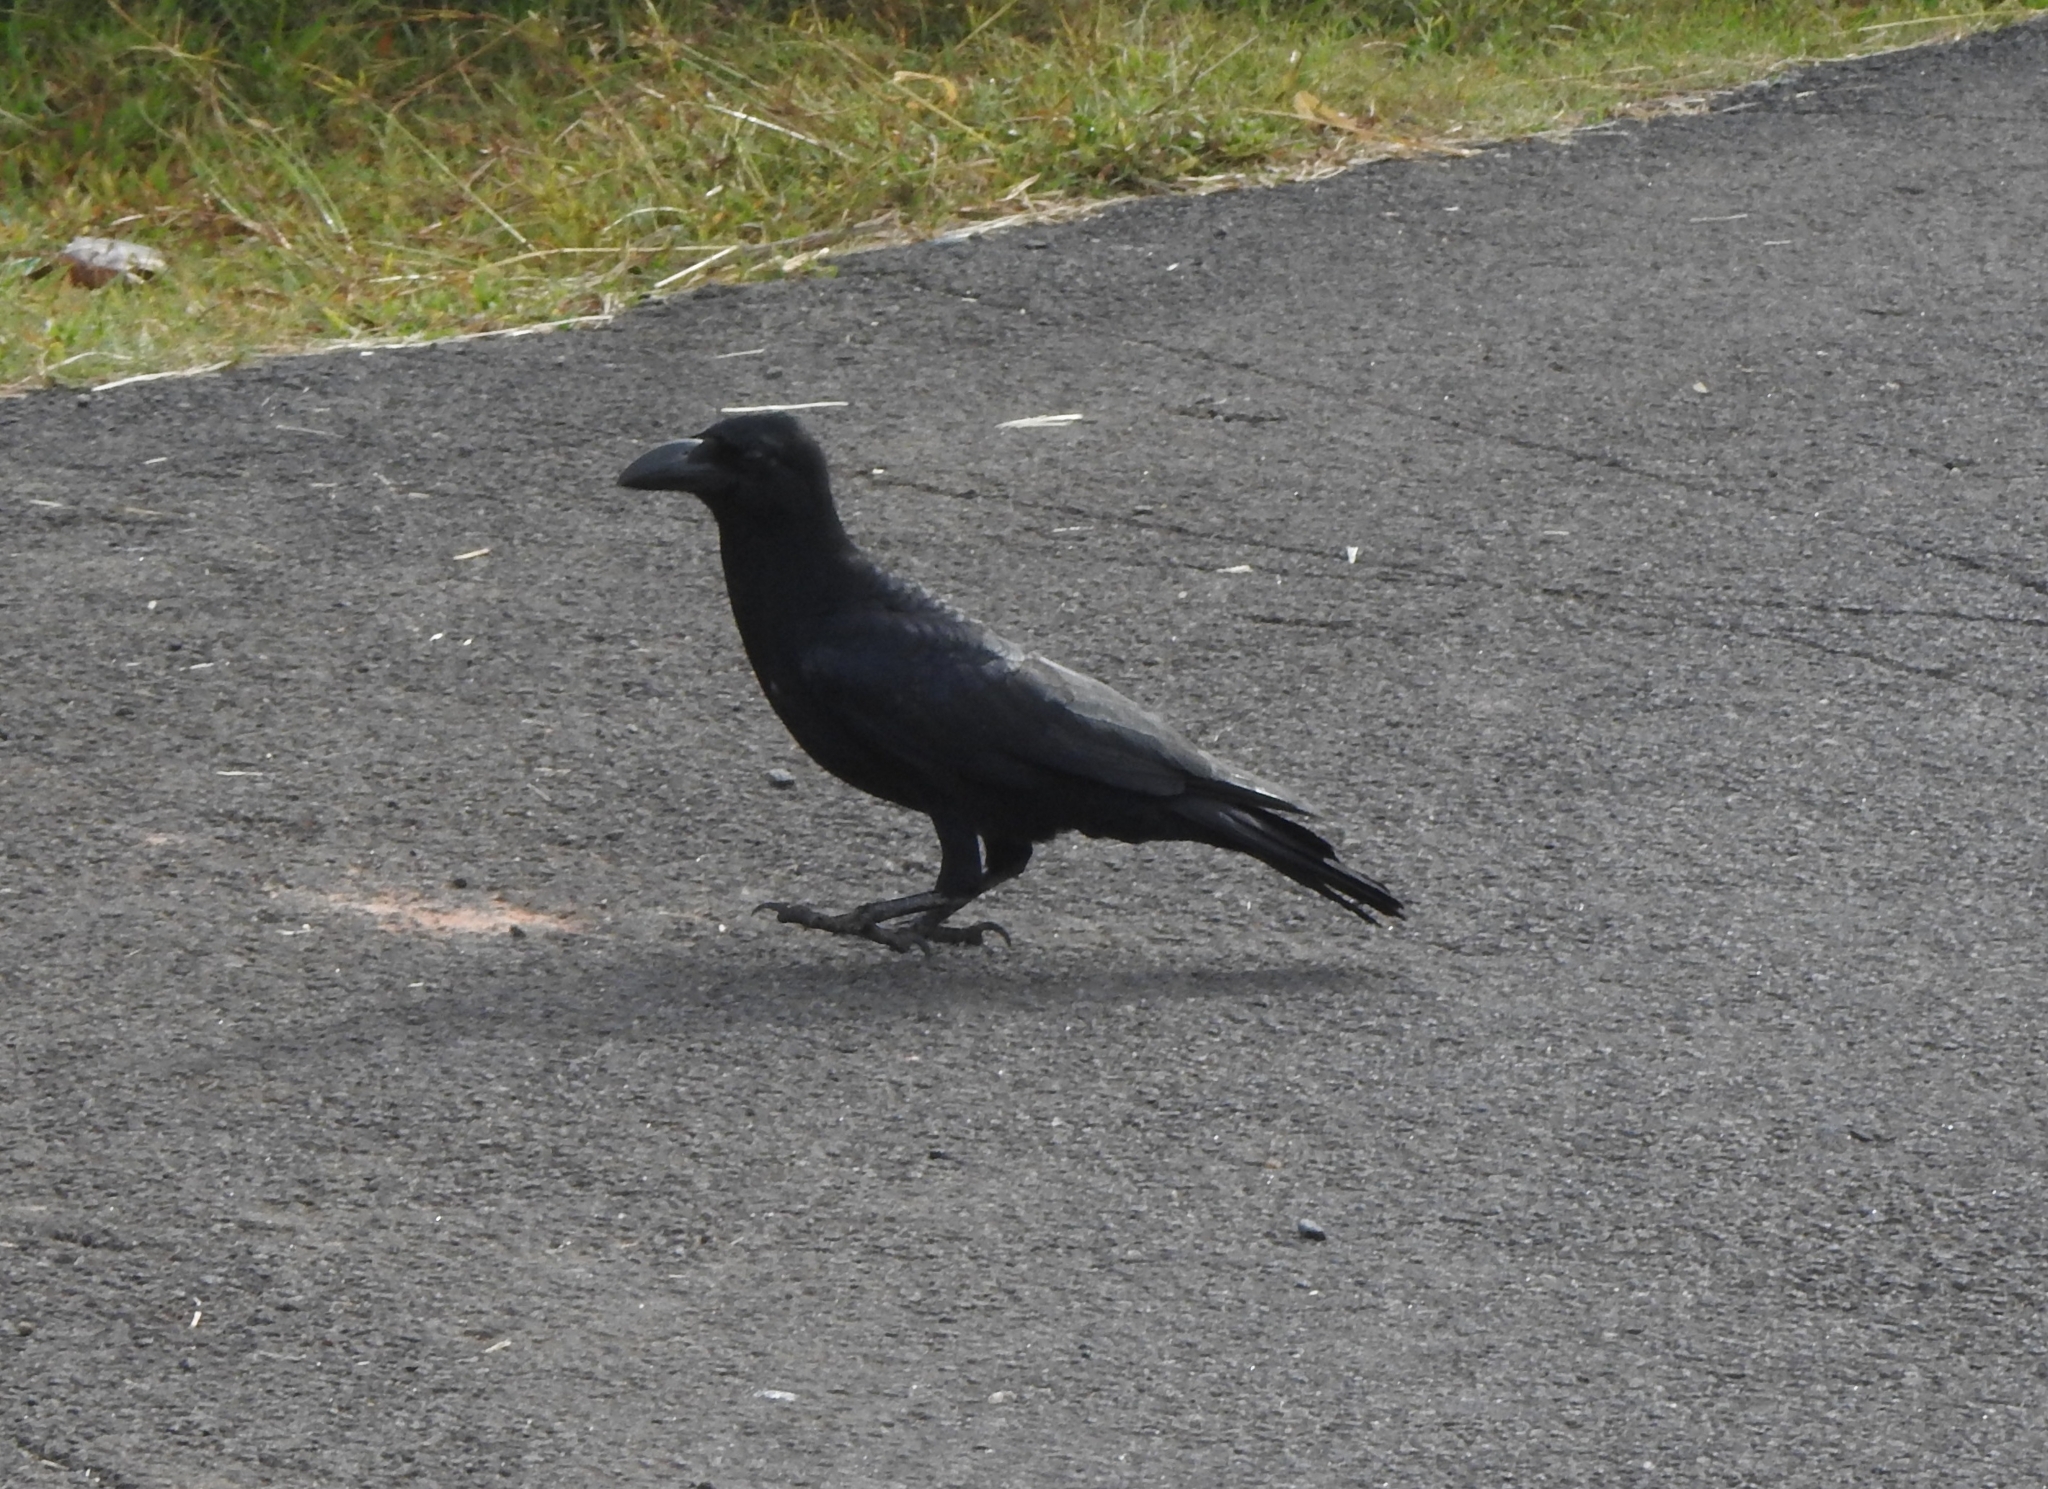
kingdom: Animalia
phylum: Chordata
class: Aves
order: Passeriformes
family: Corvidae
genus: Corvus
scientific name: Corvus macrorhynchos
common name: Large-billed crow
